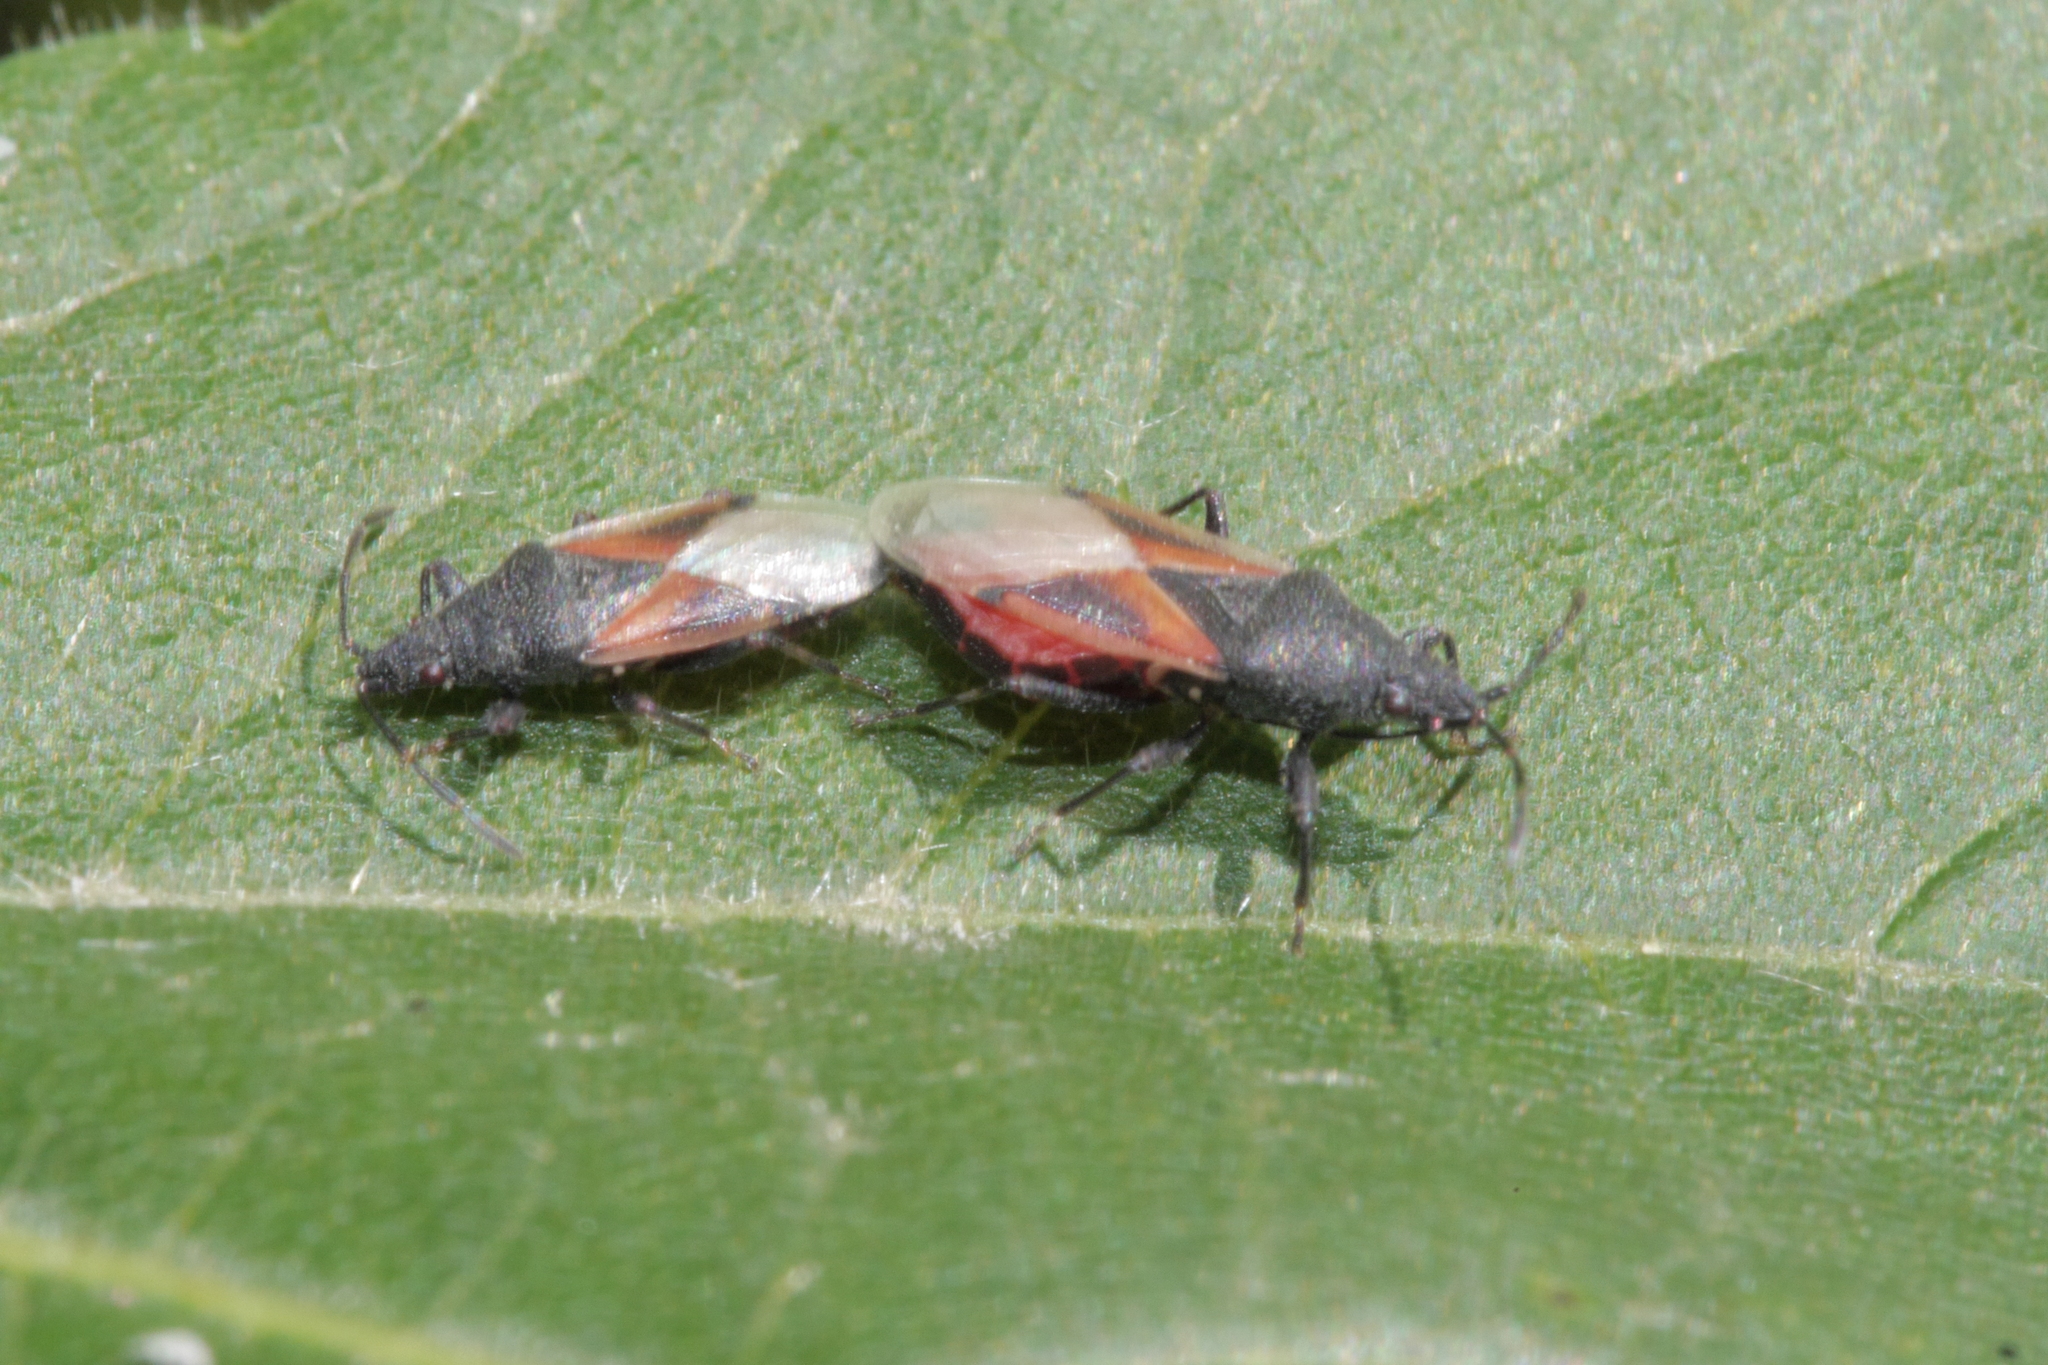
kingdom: Animalia
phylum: Arthropoda
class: Insecta
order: Hemiptera
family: Oxycarenidae
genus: Oxycarenus
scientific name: Oxycarenus lavaterae
